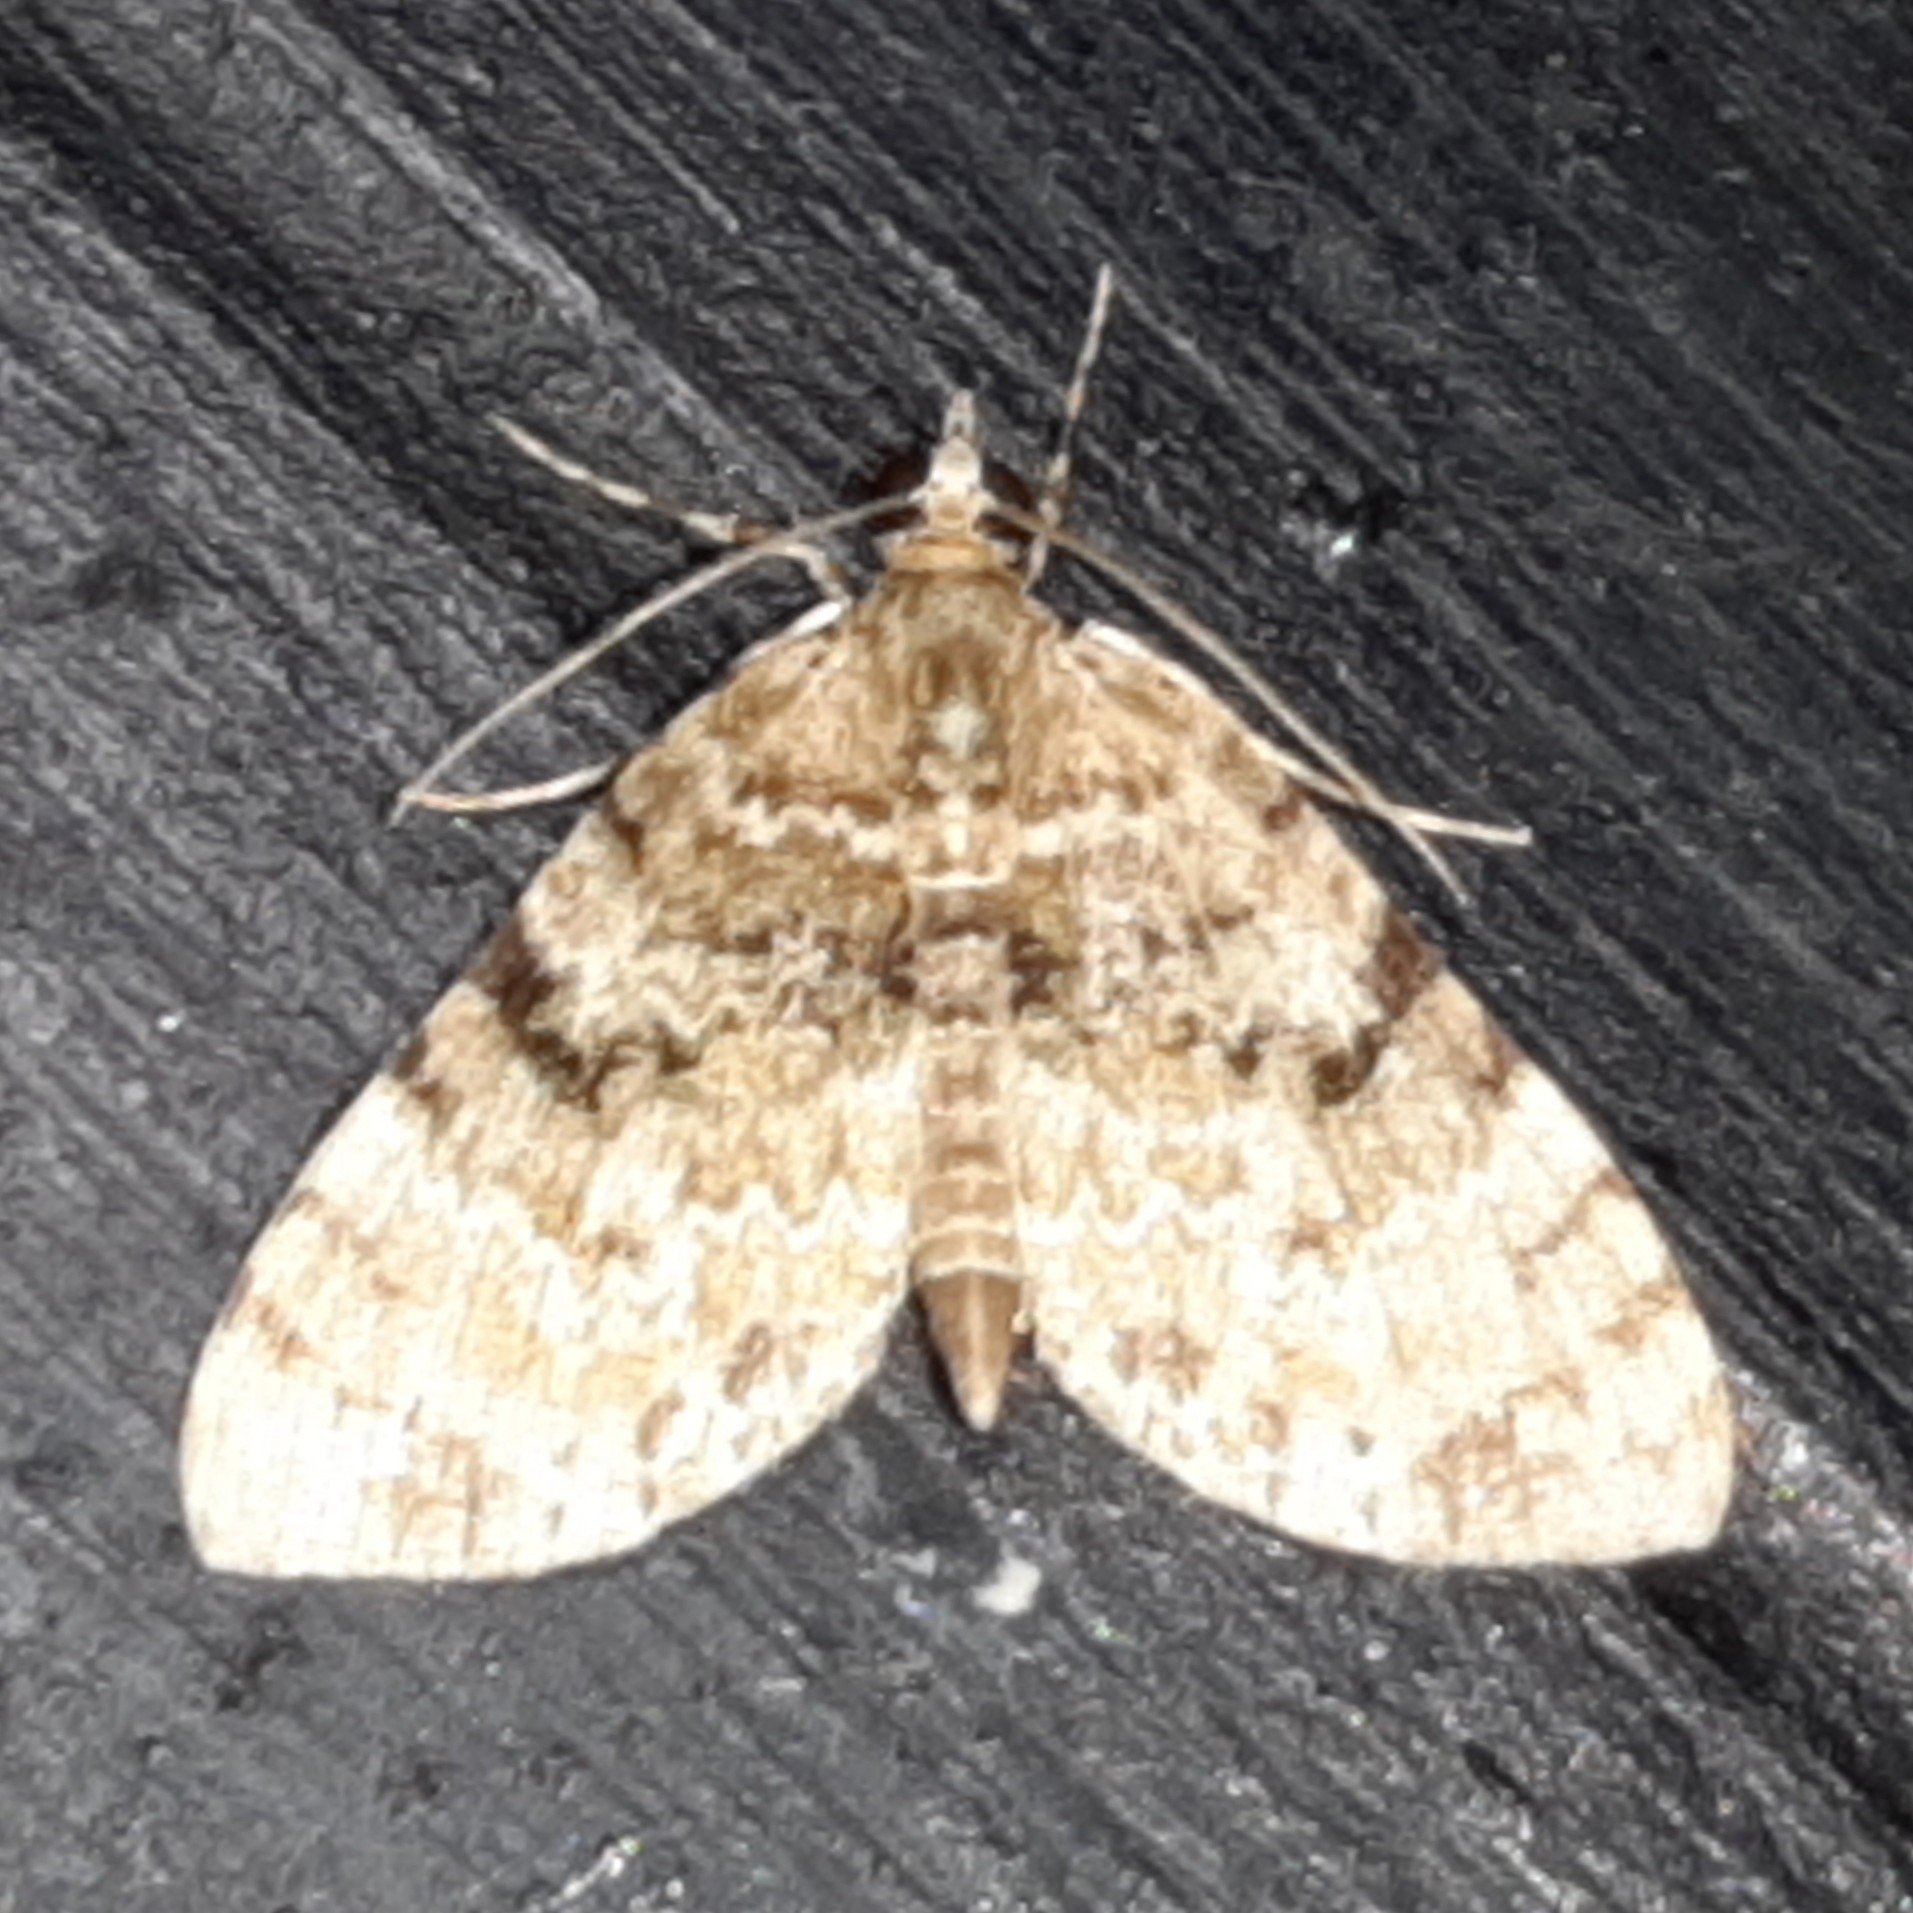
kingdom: Animalia
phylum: Arthropoda
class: Insecta
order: Lepidoptera
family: Geometridae
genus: Spargania
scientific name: Spargania cultata
